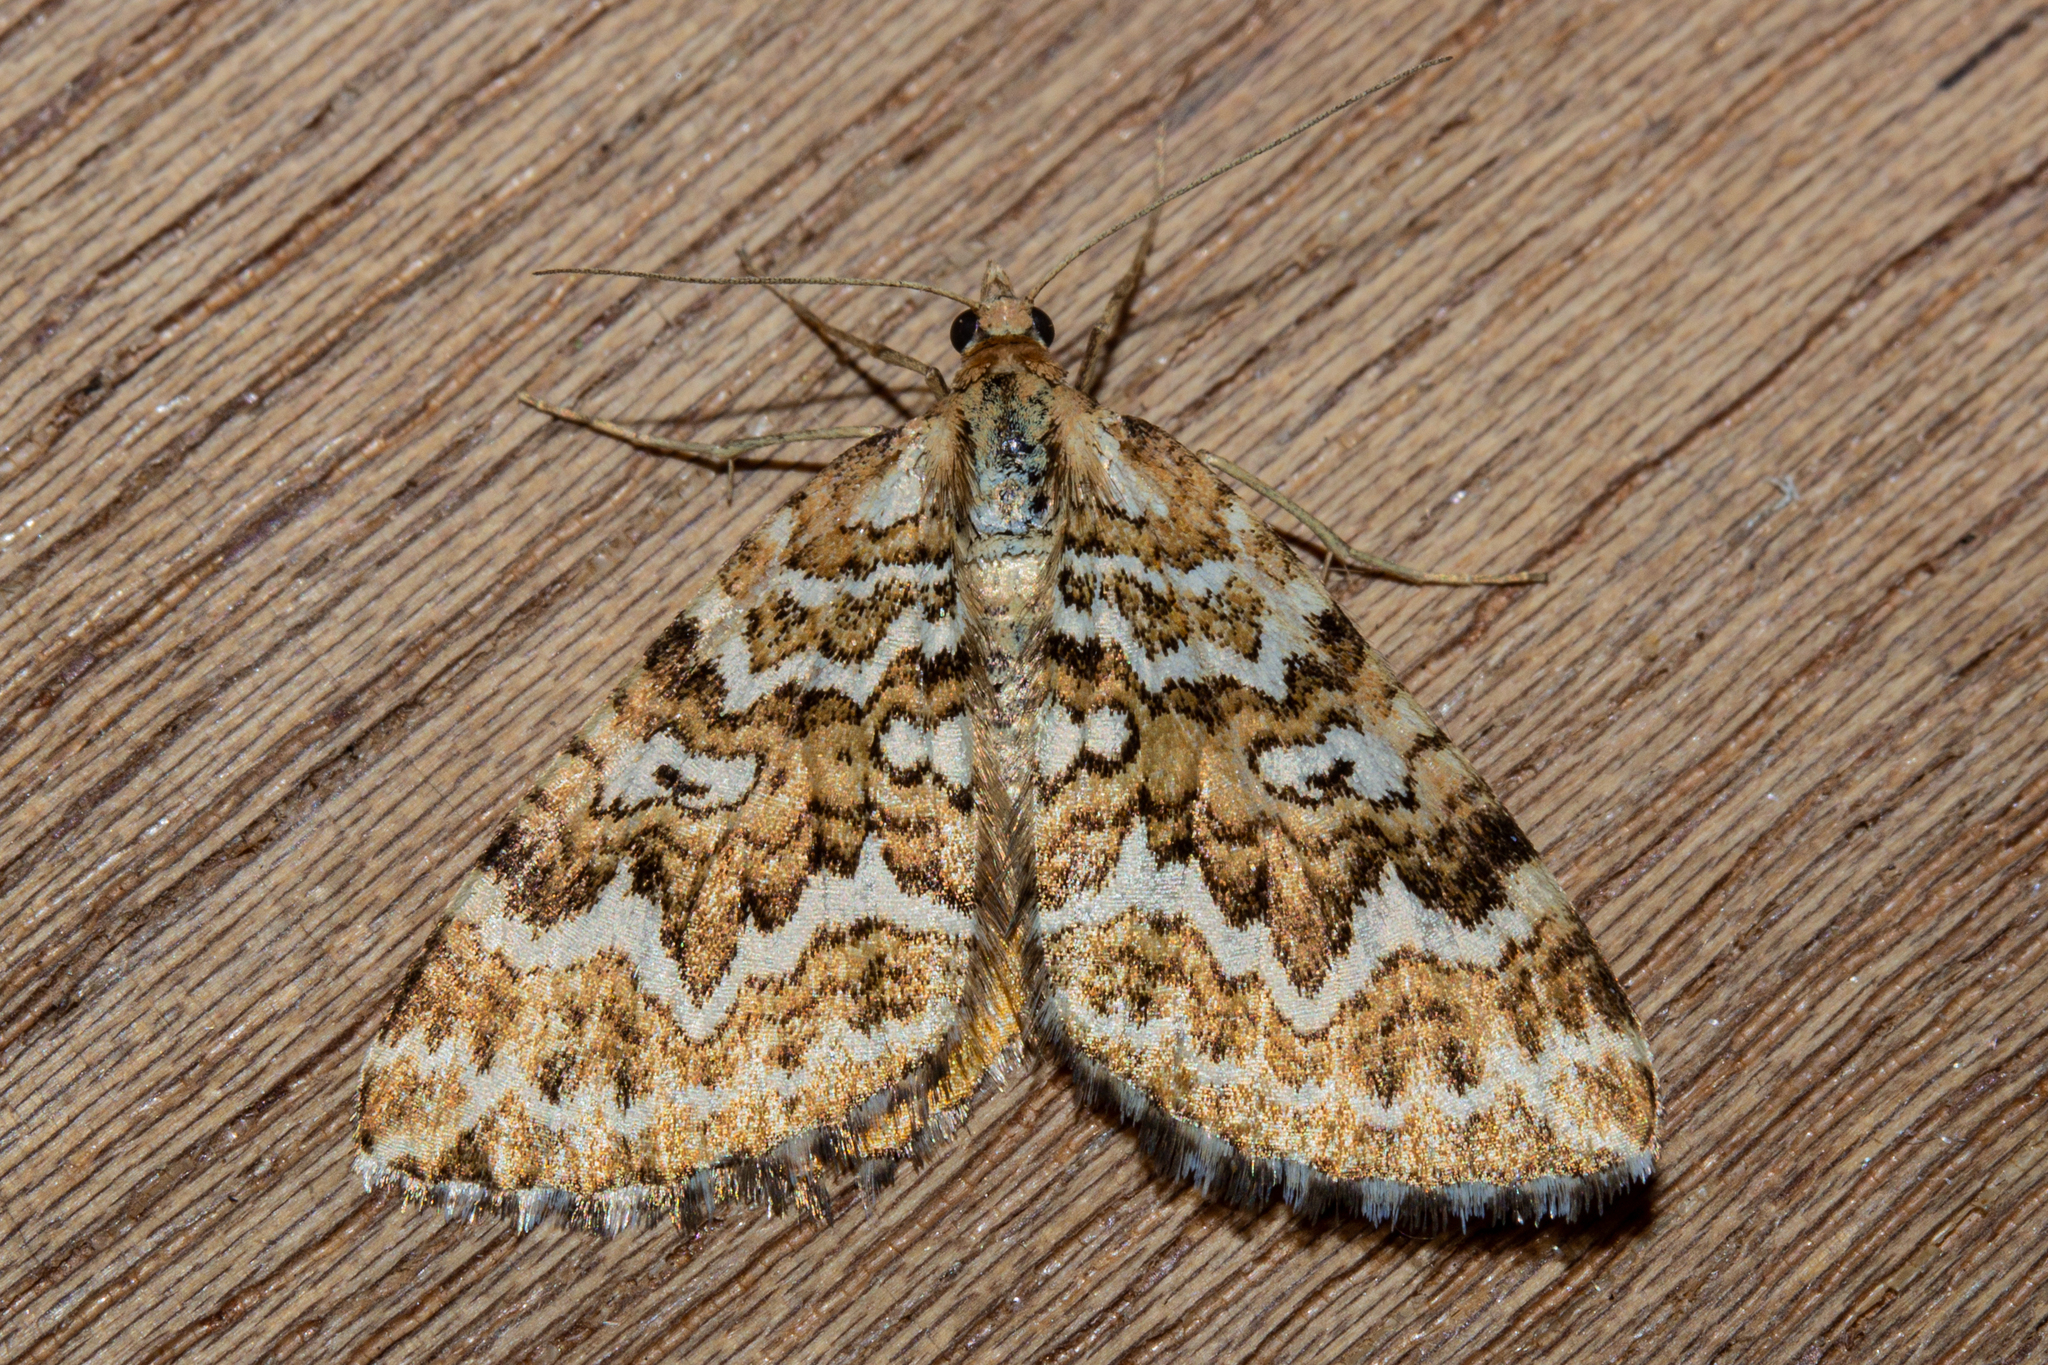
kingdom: Animalia
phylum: Arthropoda
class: Insecta
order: Lepidoptera
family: Geometridae
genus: Asaphodes
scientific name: Asaphodes clarata
